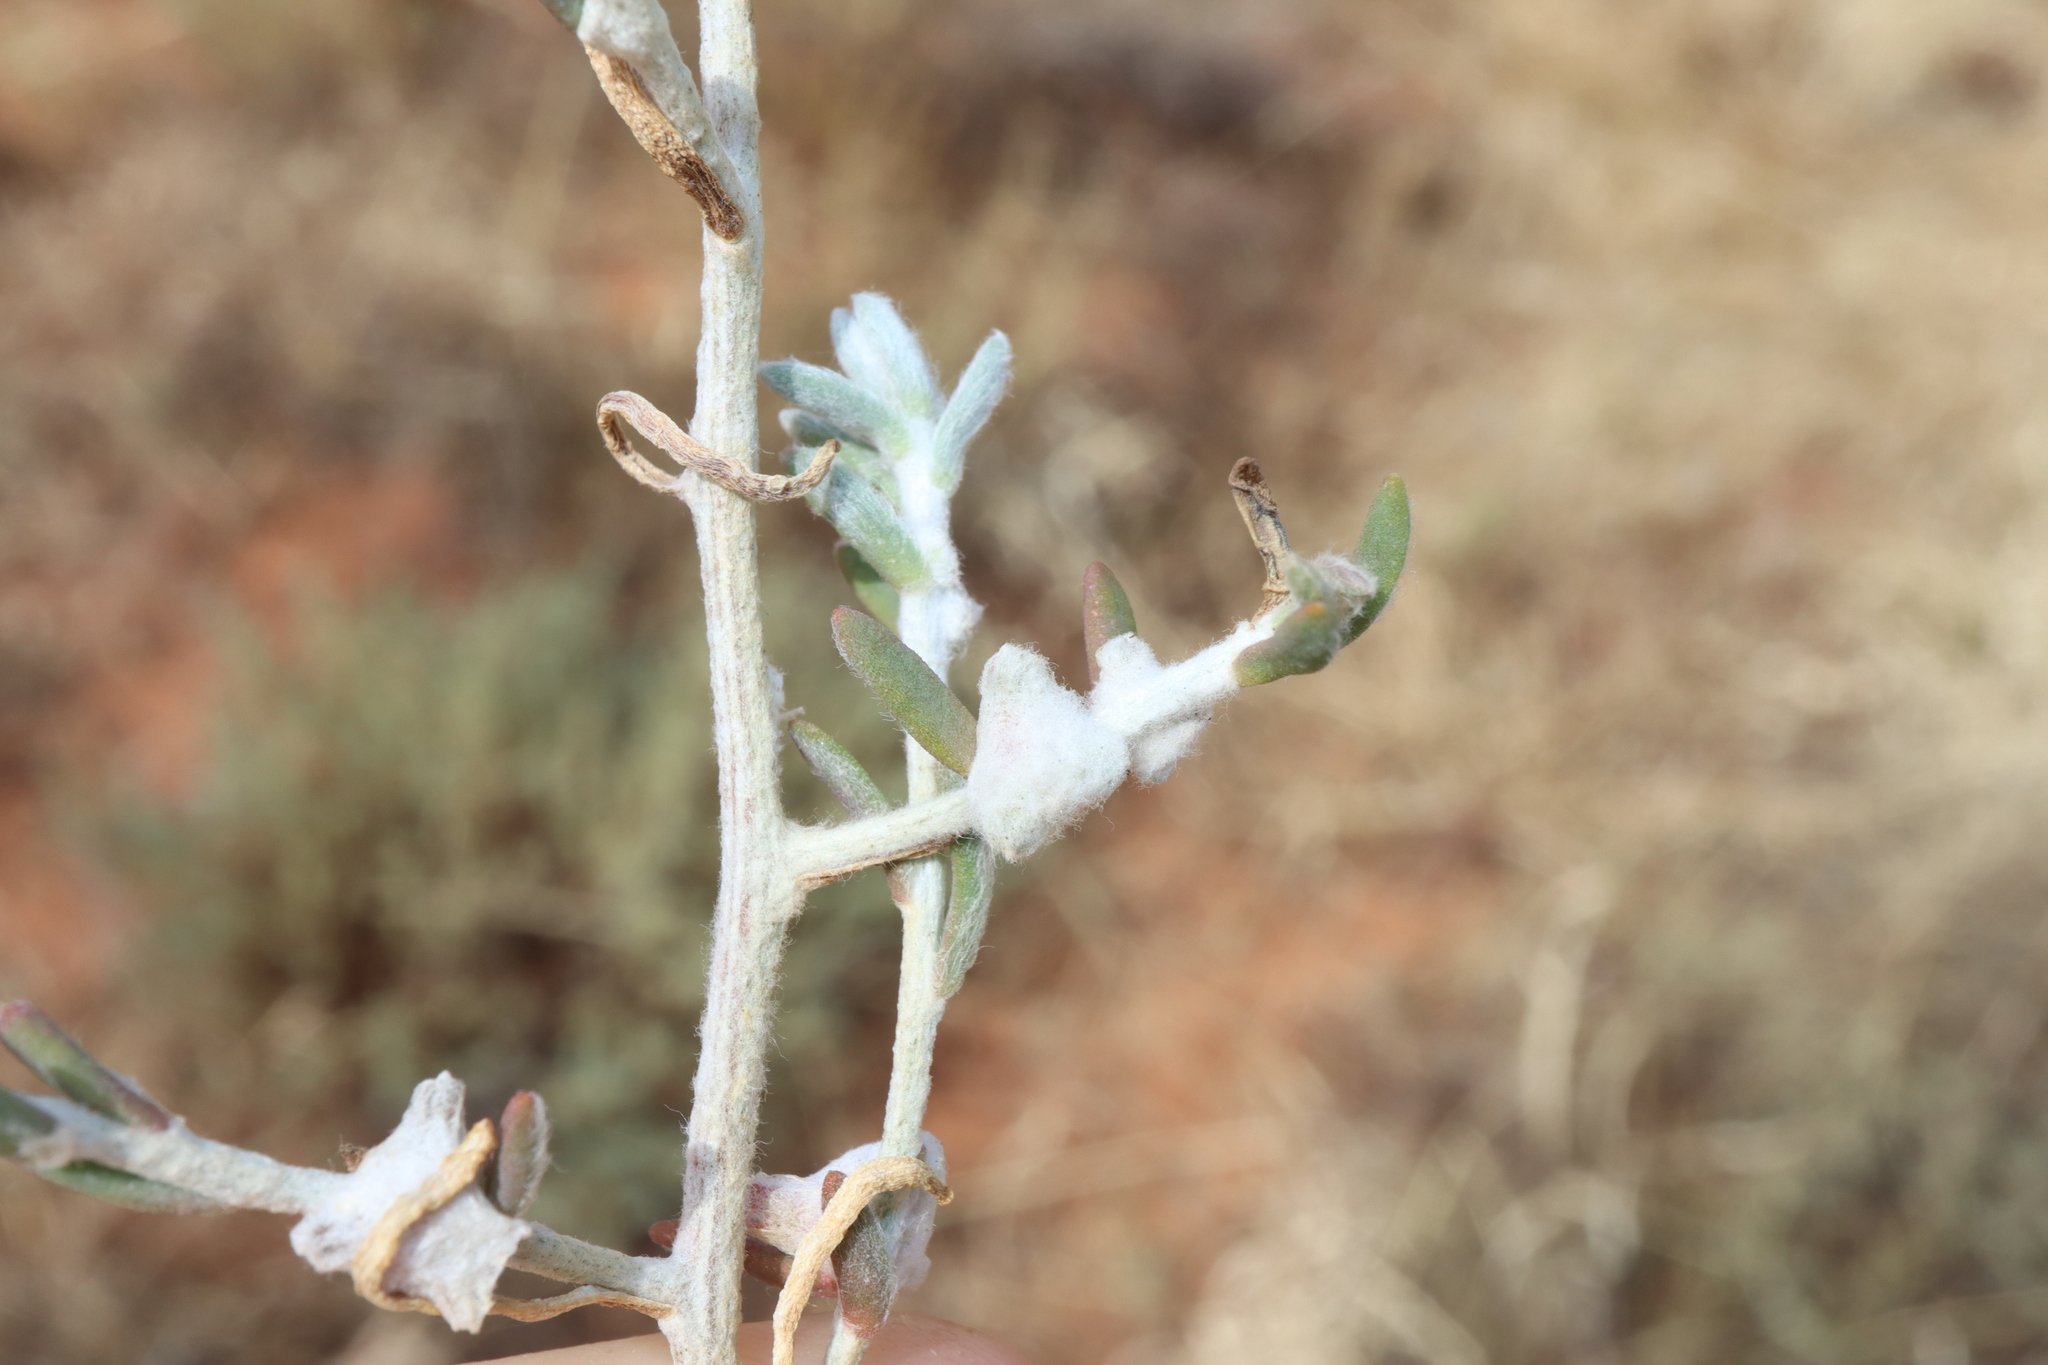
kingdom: Plantae
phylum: Tracheophyta
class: Magnoliopsida
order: Caryophyllales
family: Amaranthaceae
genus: Dissocarpus
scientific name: Dissocarpus biflorus
